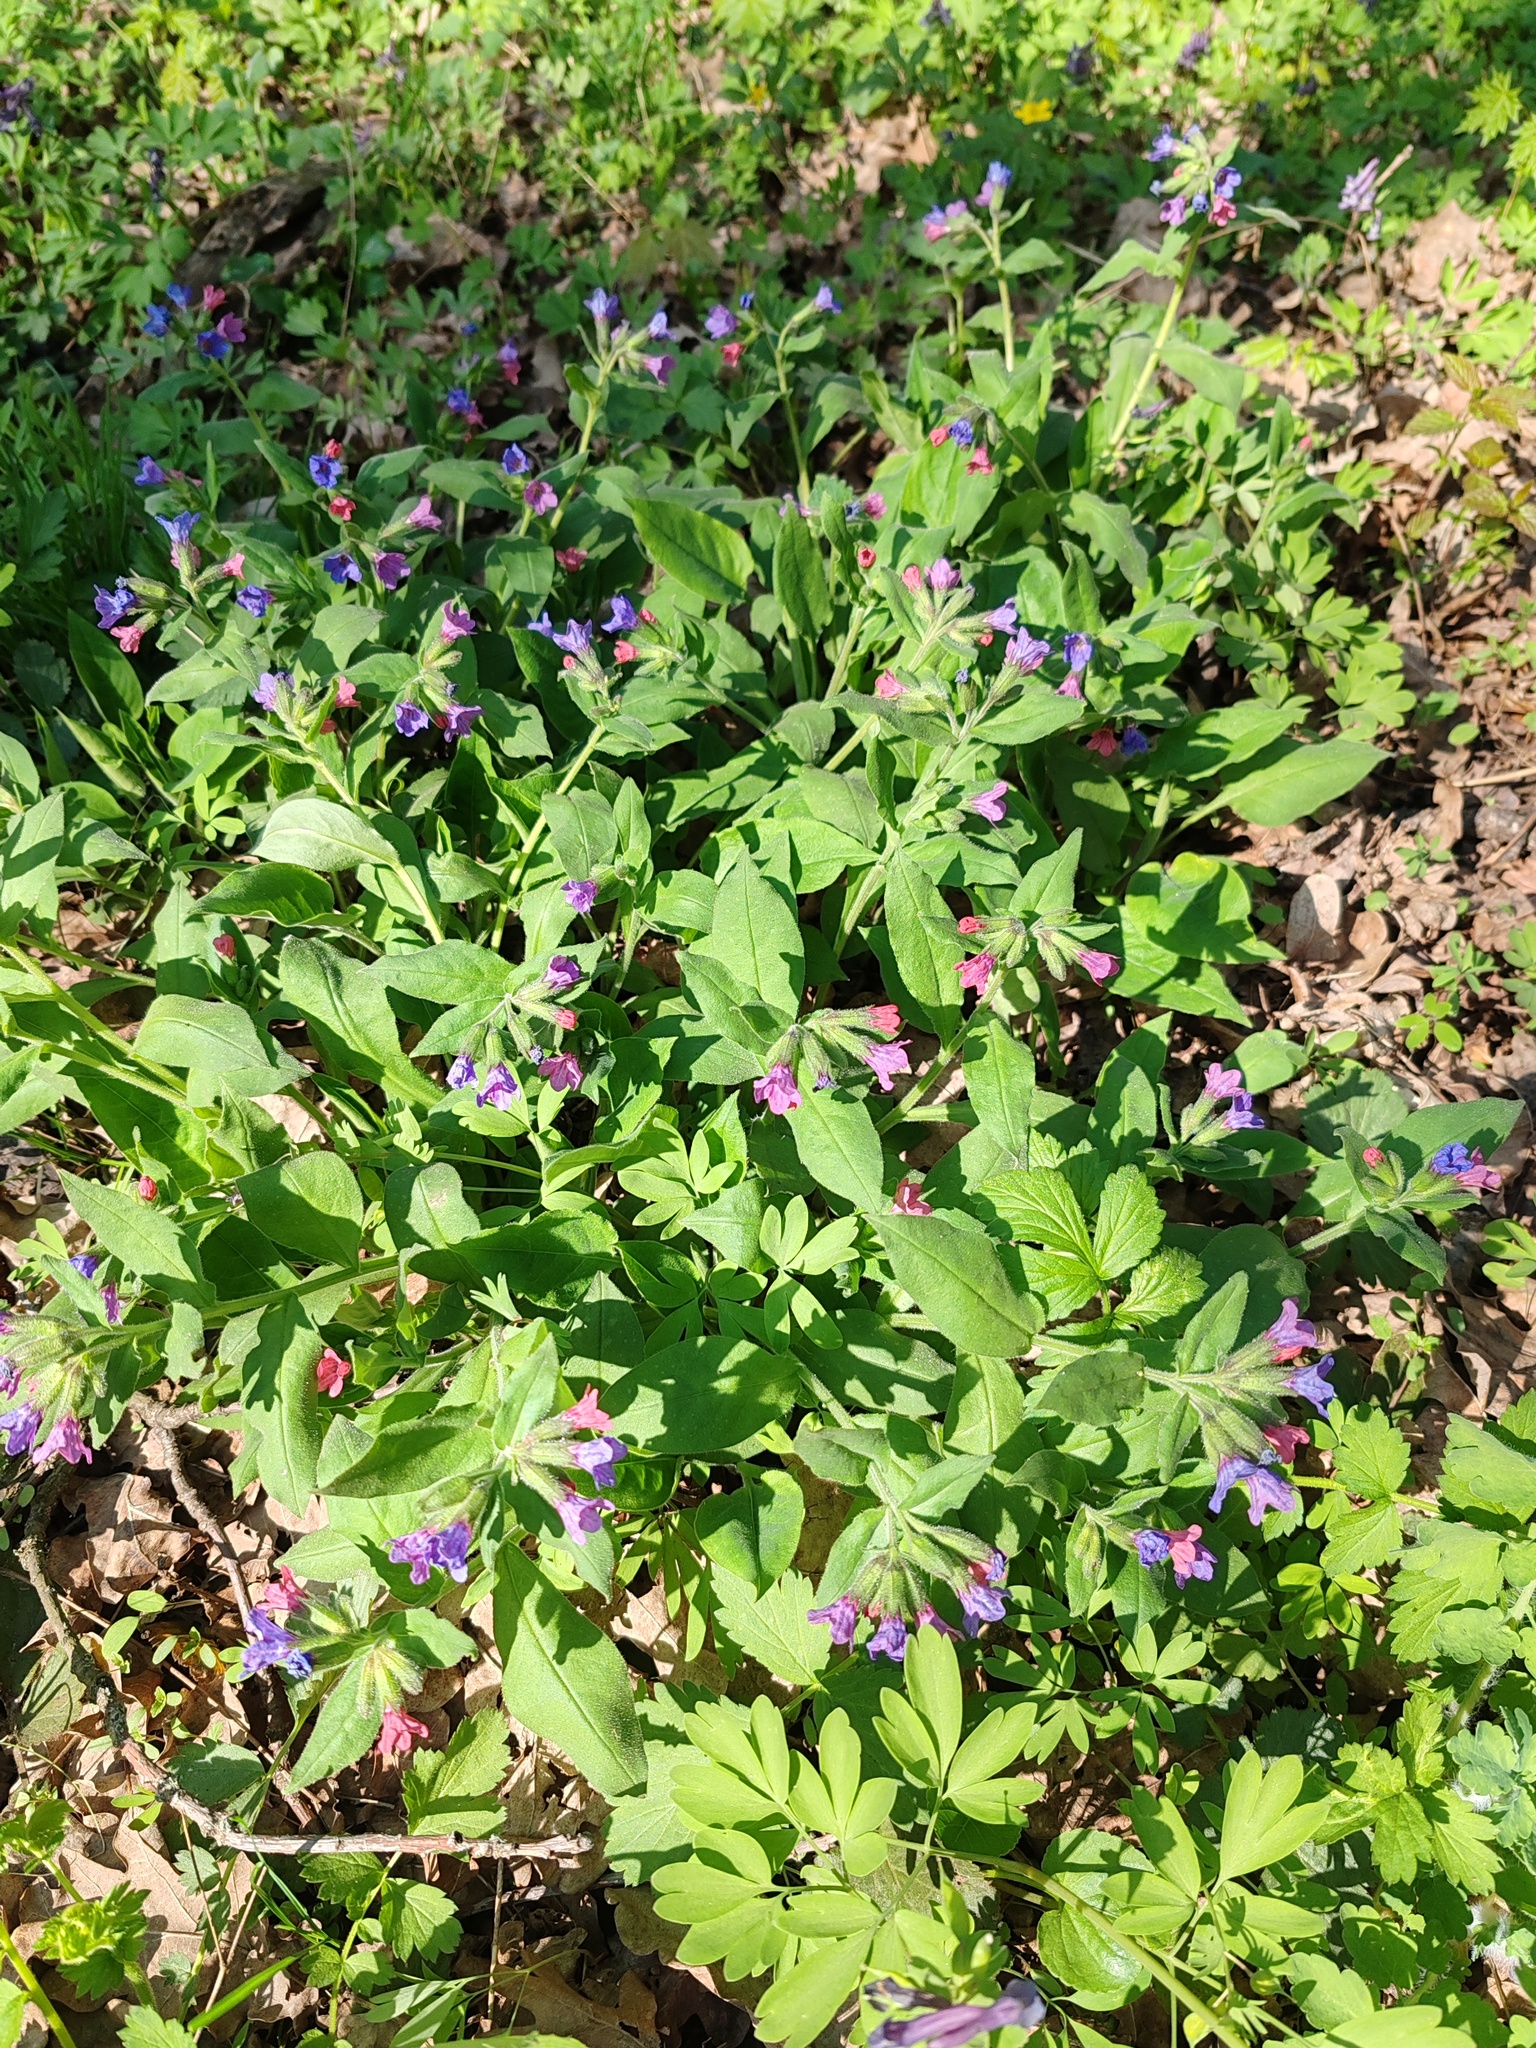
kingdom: Plantae
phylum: Tracheophyta
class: Magnoliopsida
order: Boraginales
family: Boraginaceae
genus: Pulmonaria
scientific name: Pulmonaria obscura
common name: Suffolk lungwort
